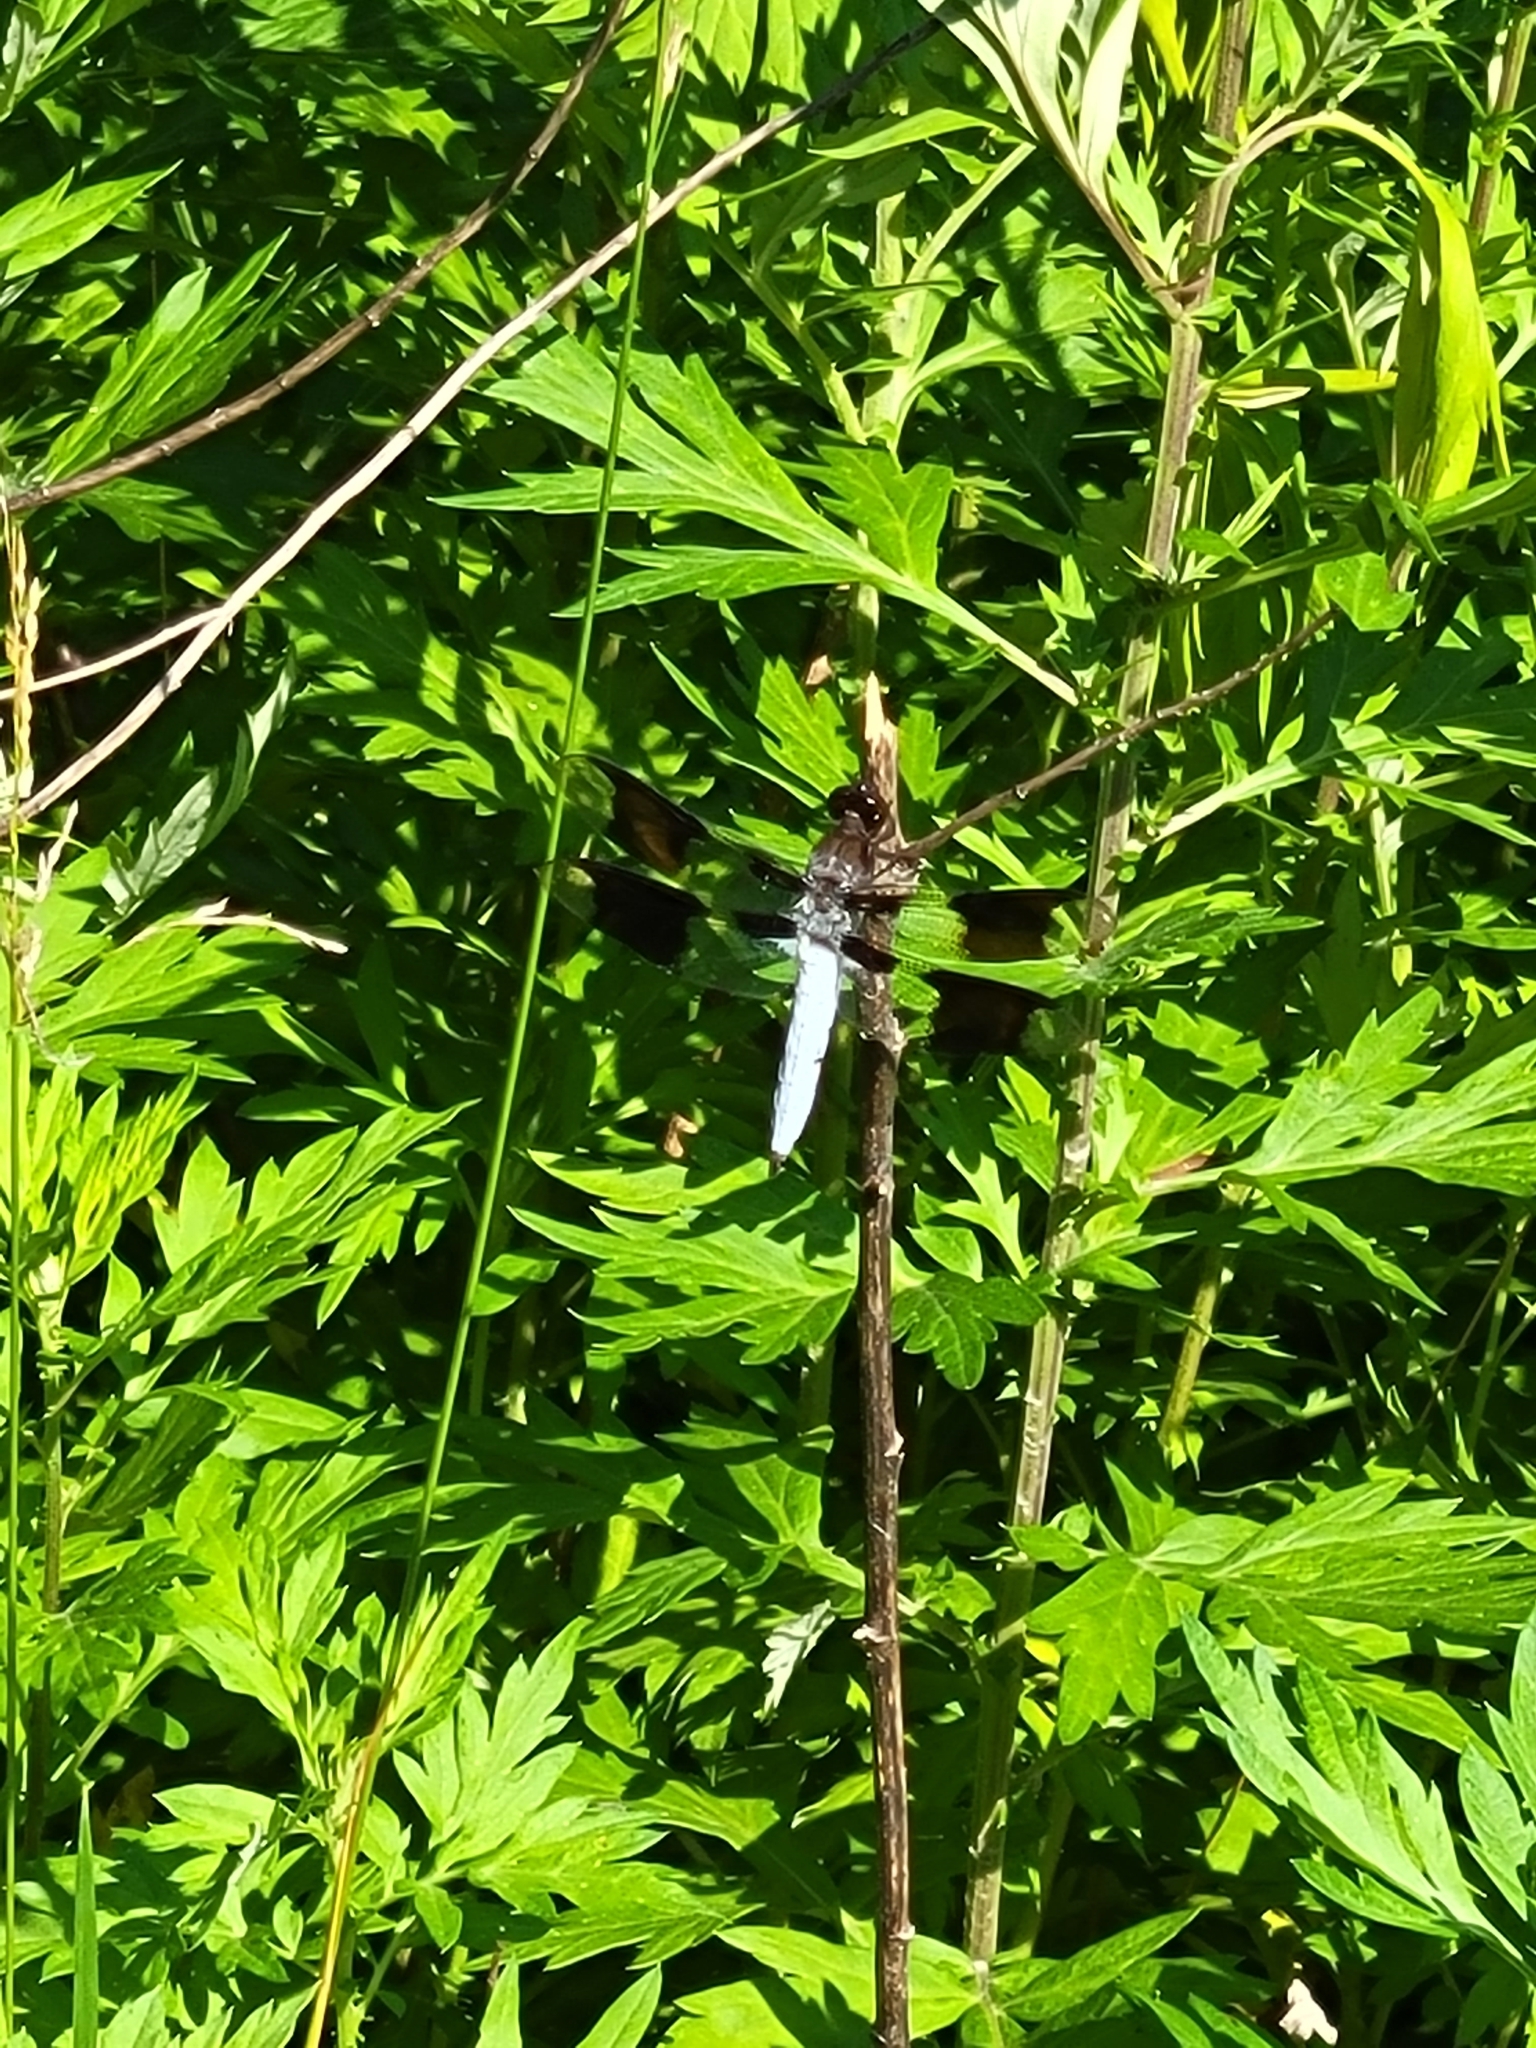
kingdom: Animalia
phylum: Arthropoda
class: Insecta
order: Odonata
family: Libellulidae
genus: Plathemis
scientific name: Plathemis lydia
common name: Common whitetail
